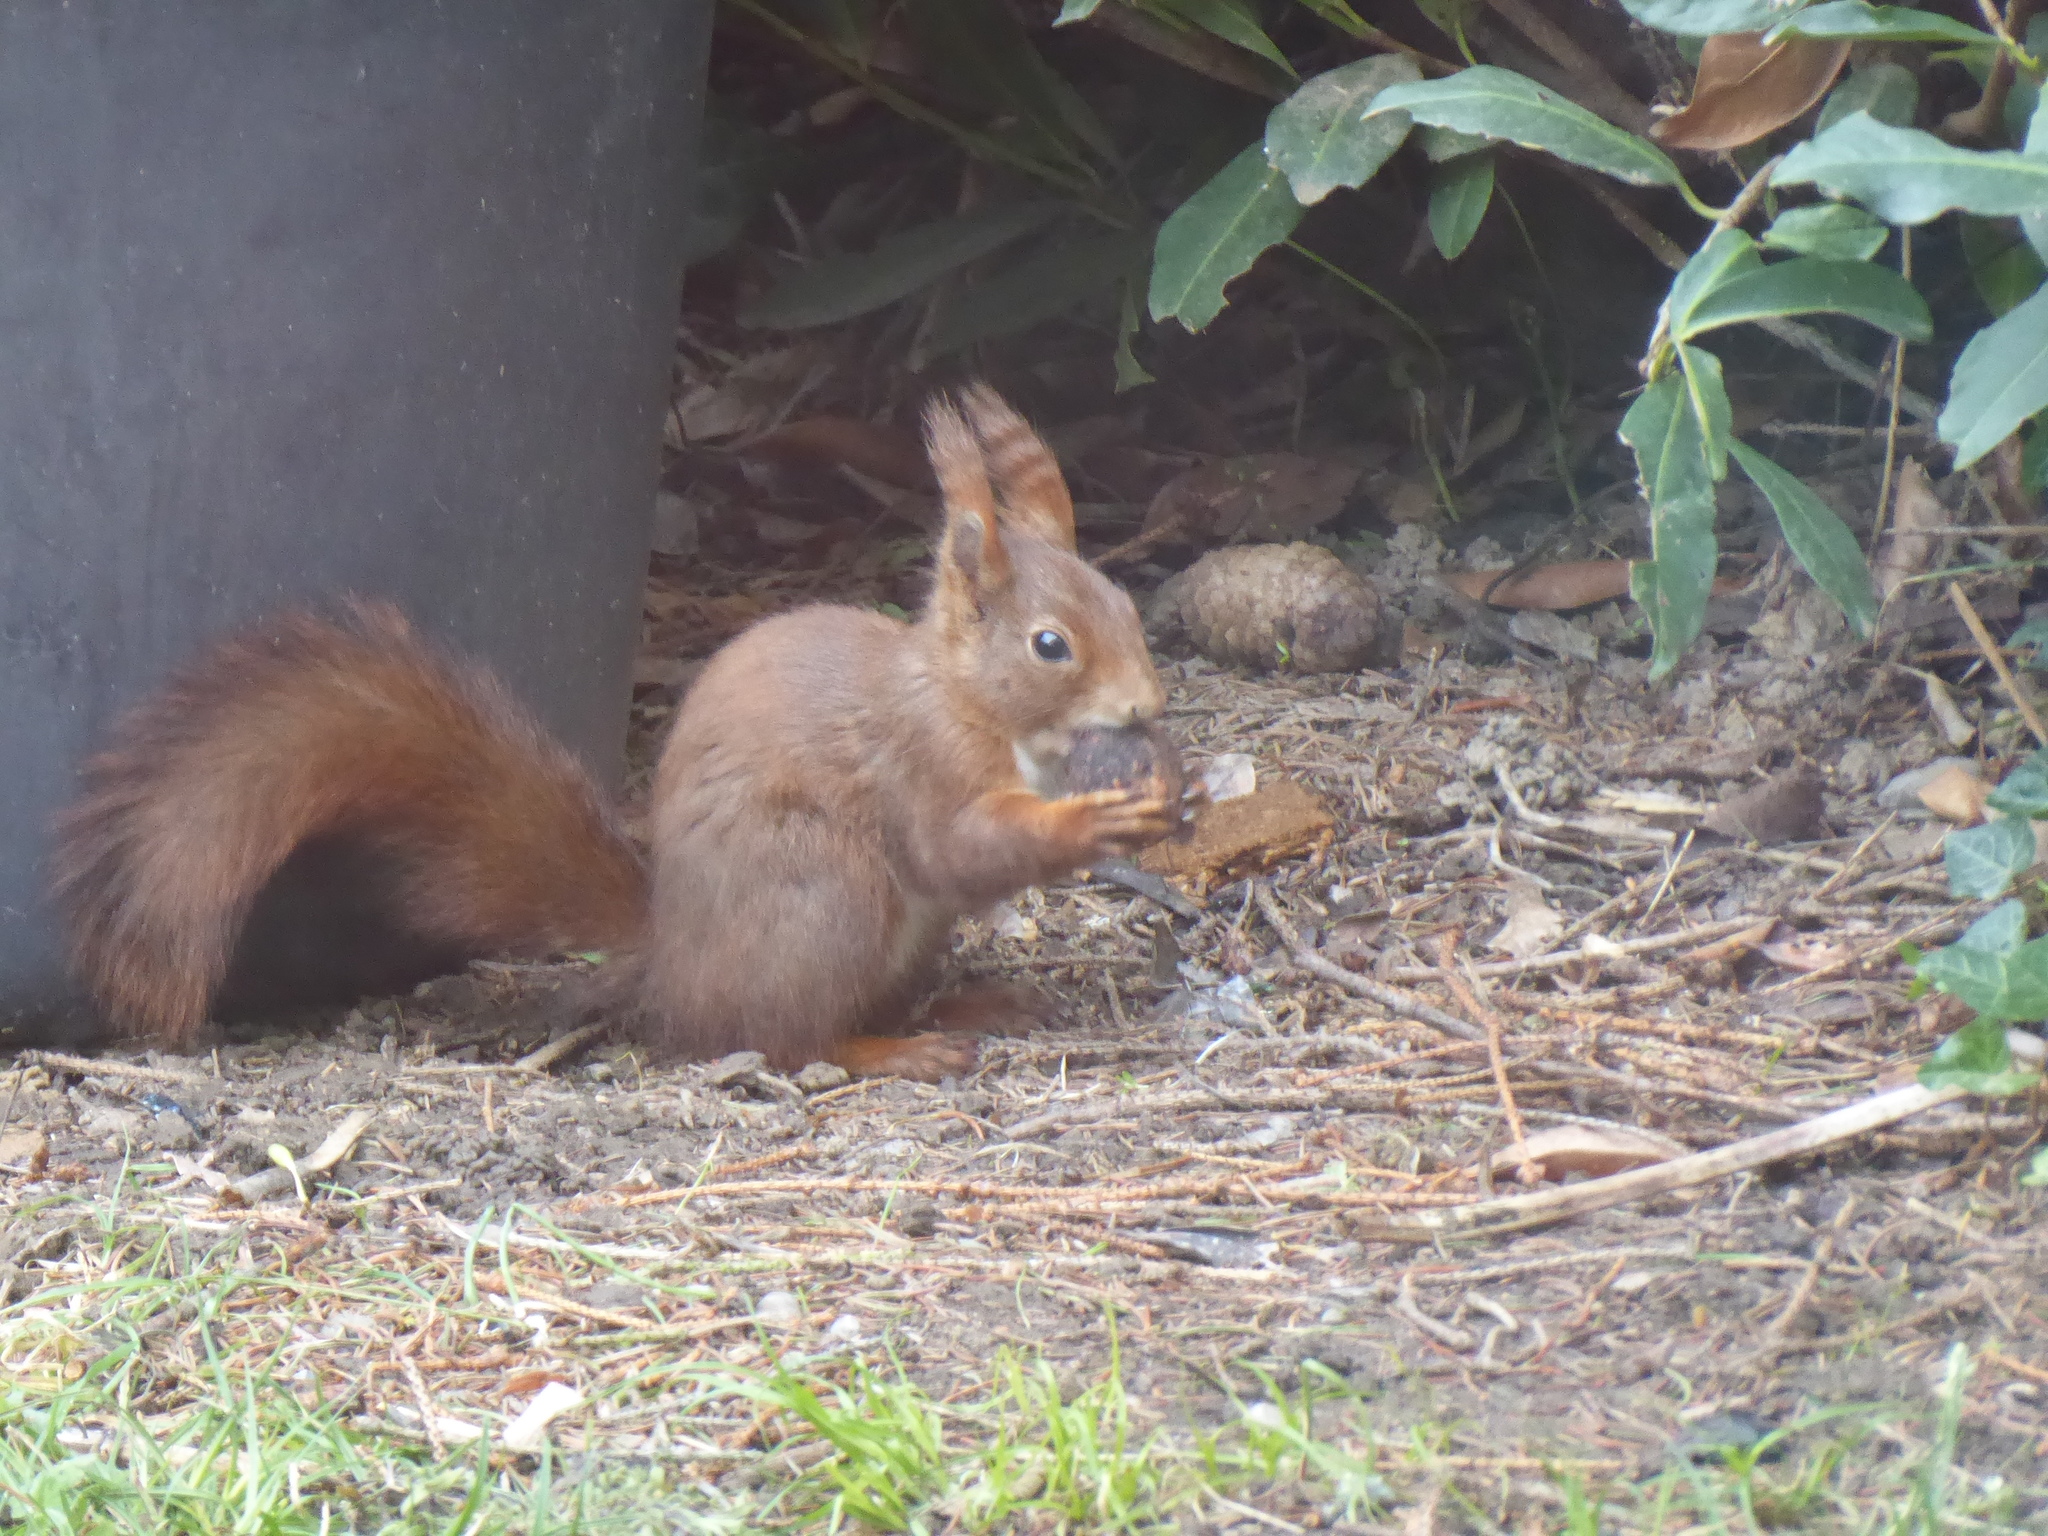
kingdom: Animalia
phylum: Chordata
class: Mammalia
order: Rodentia
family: Sciuridae
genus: Sciurus
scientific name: Sciurus vulgaris
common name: Eurasian red squirrel
